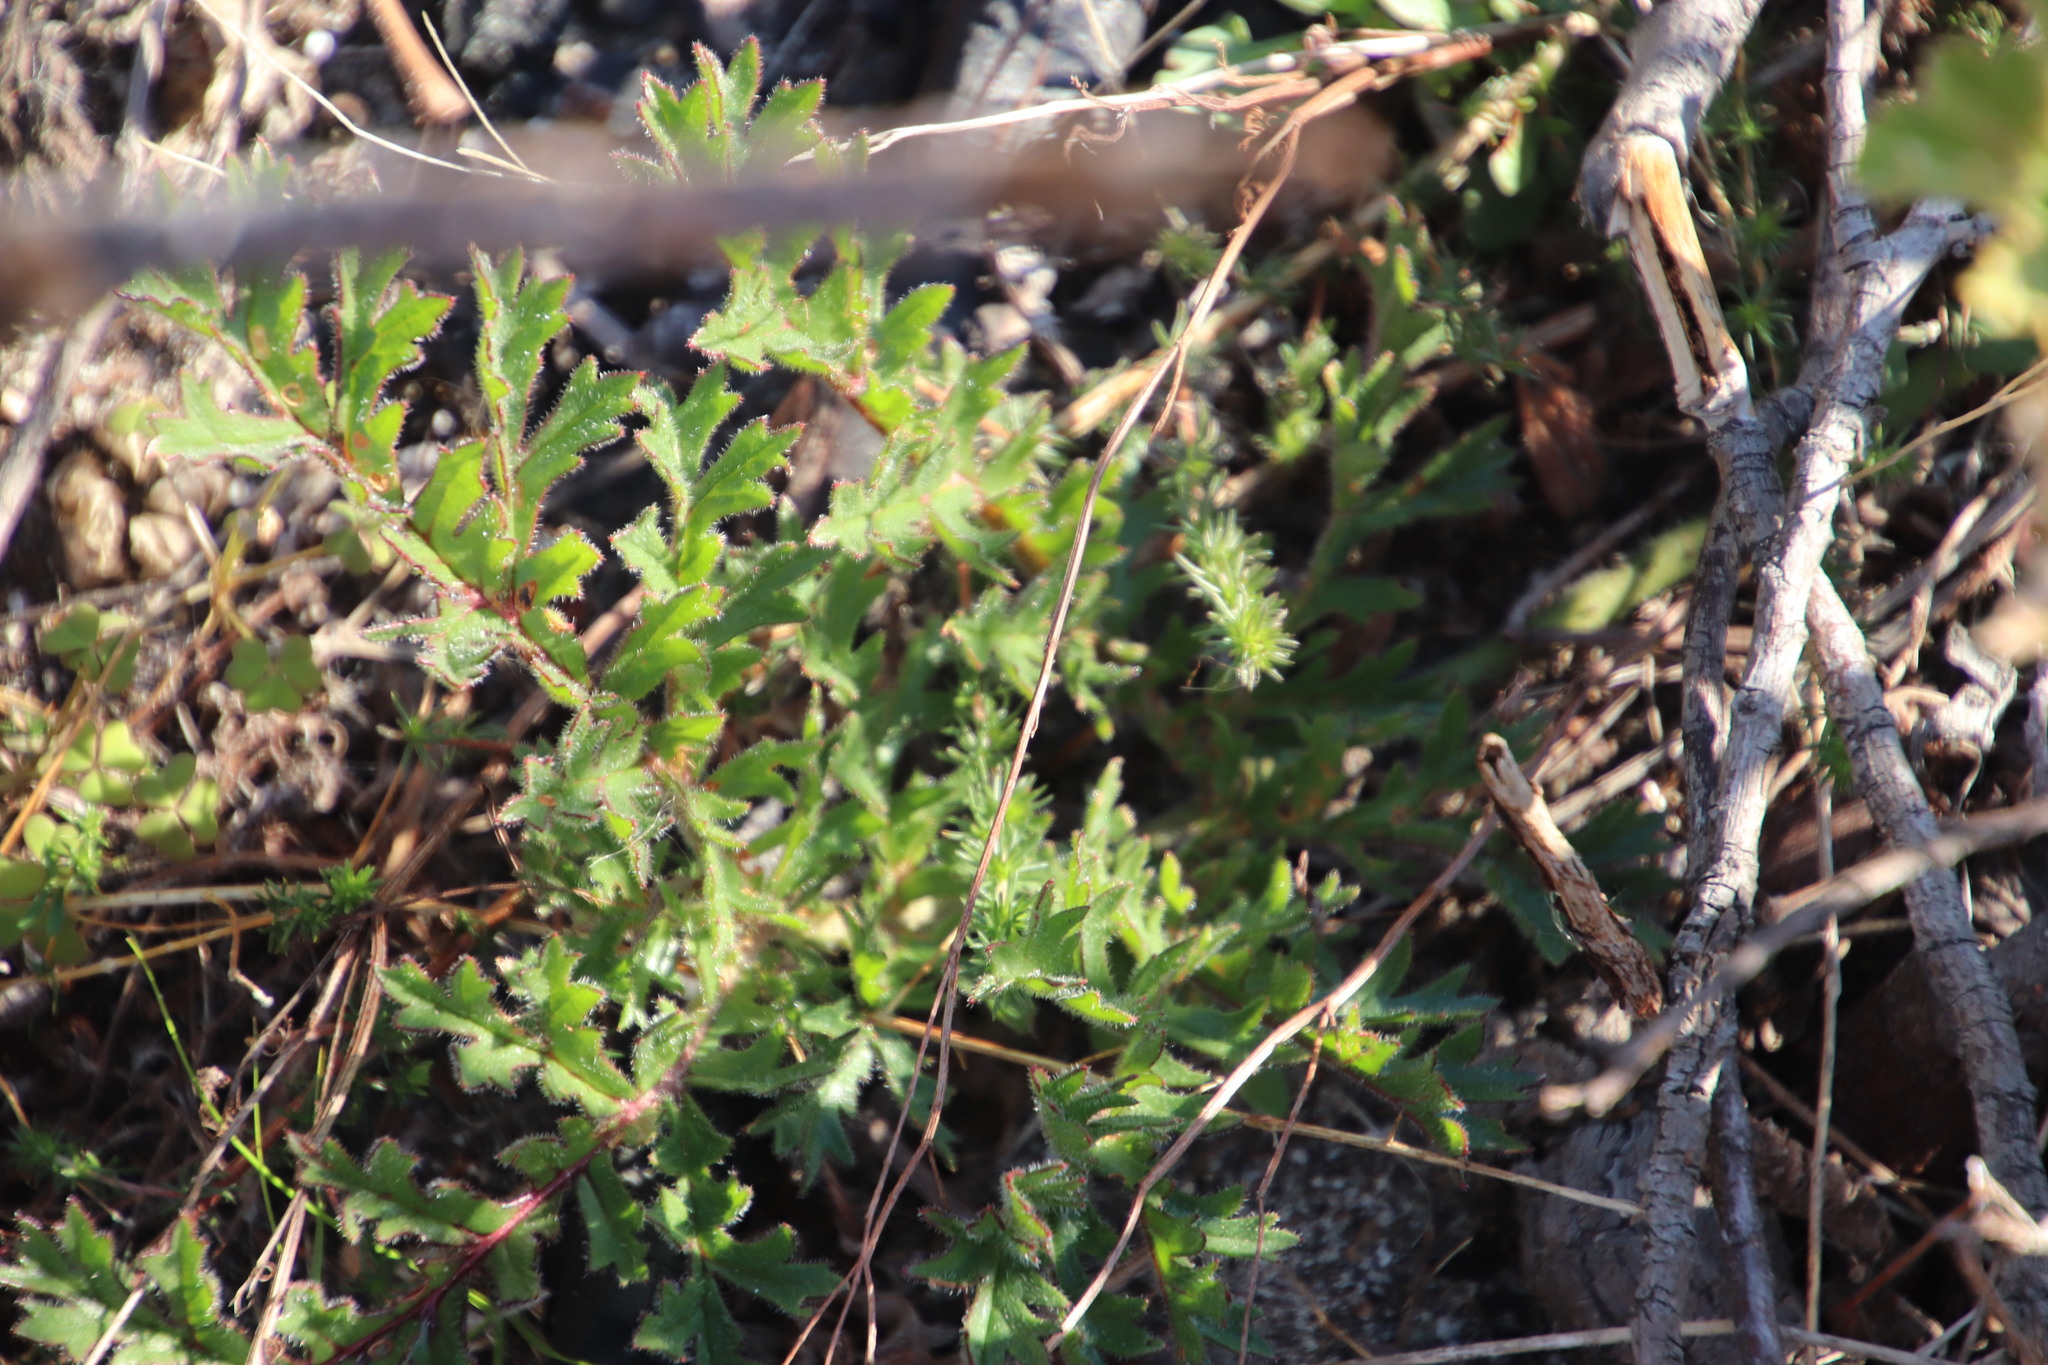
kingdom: Plantae
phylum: Tracheophyta
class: Magnoliopsida
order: Fabales
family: Fabaceae
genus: Aspalathus
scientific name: Aspalathus retroflexa
